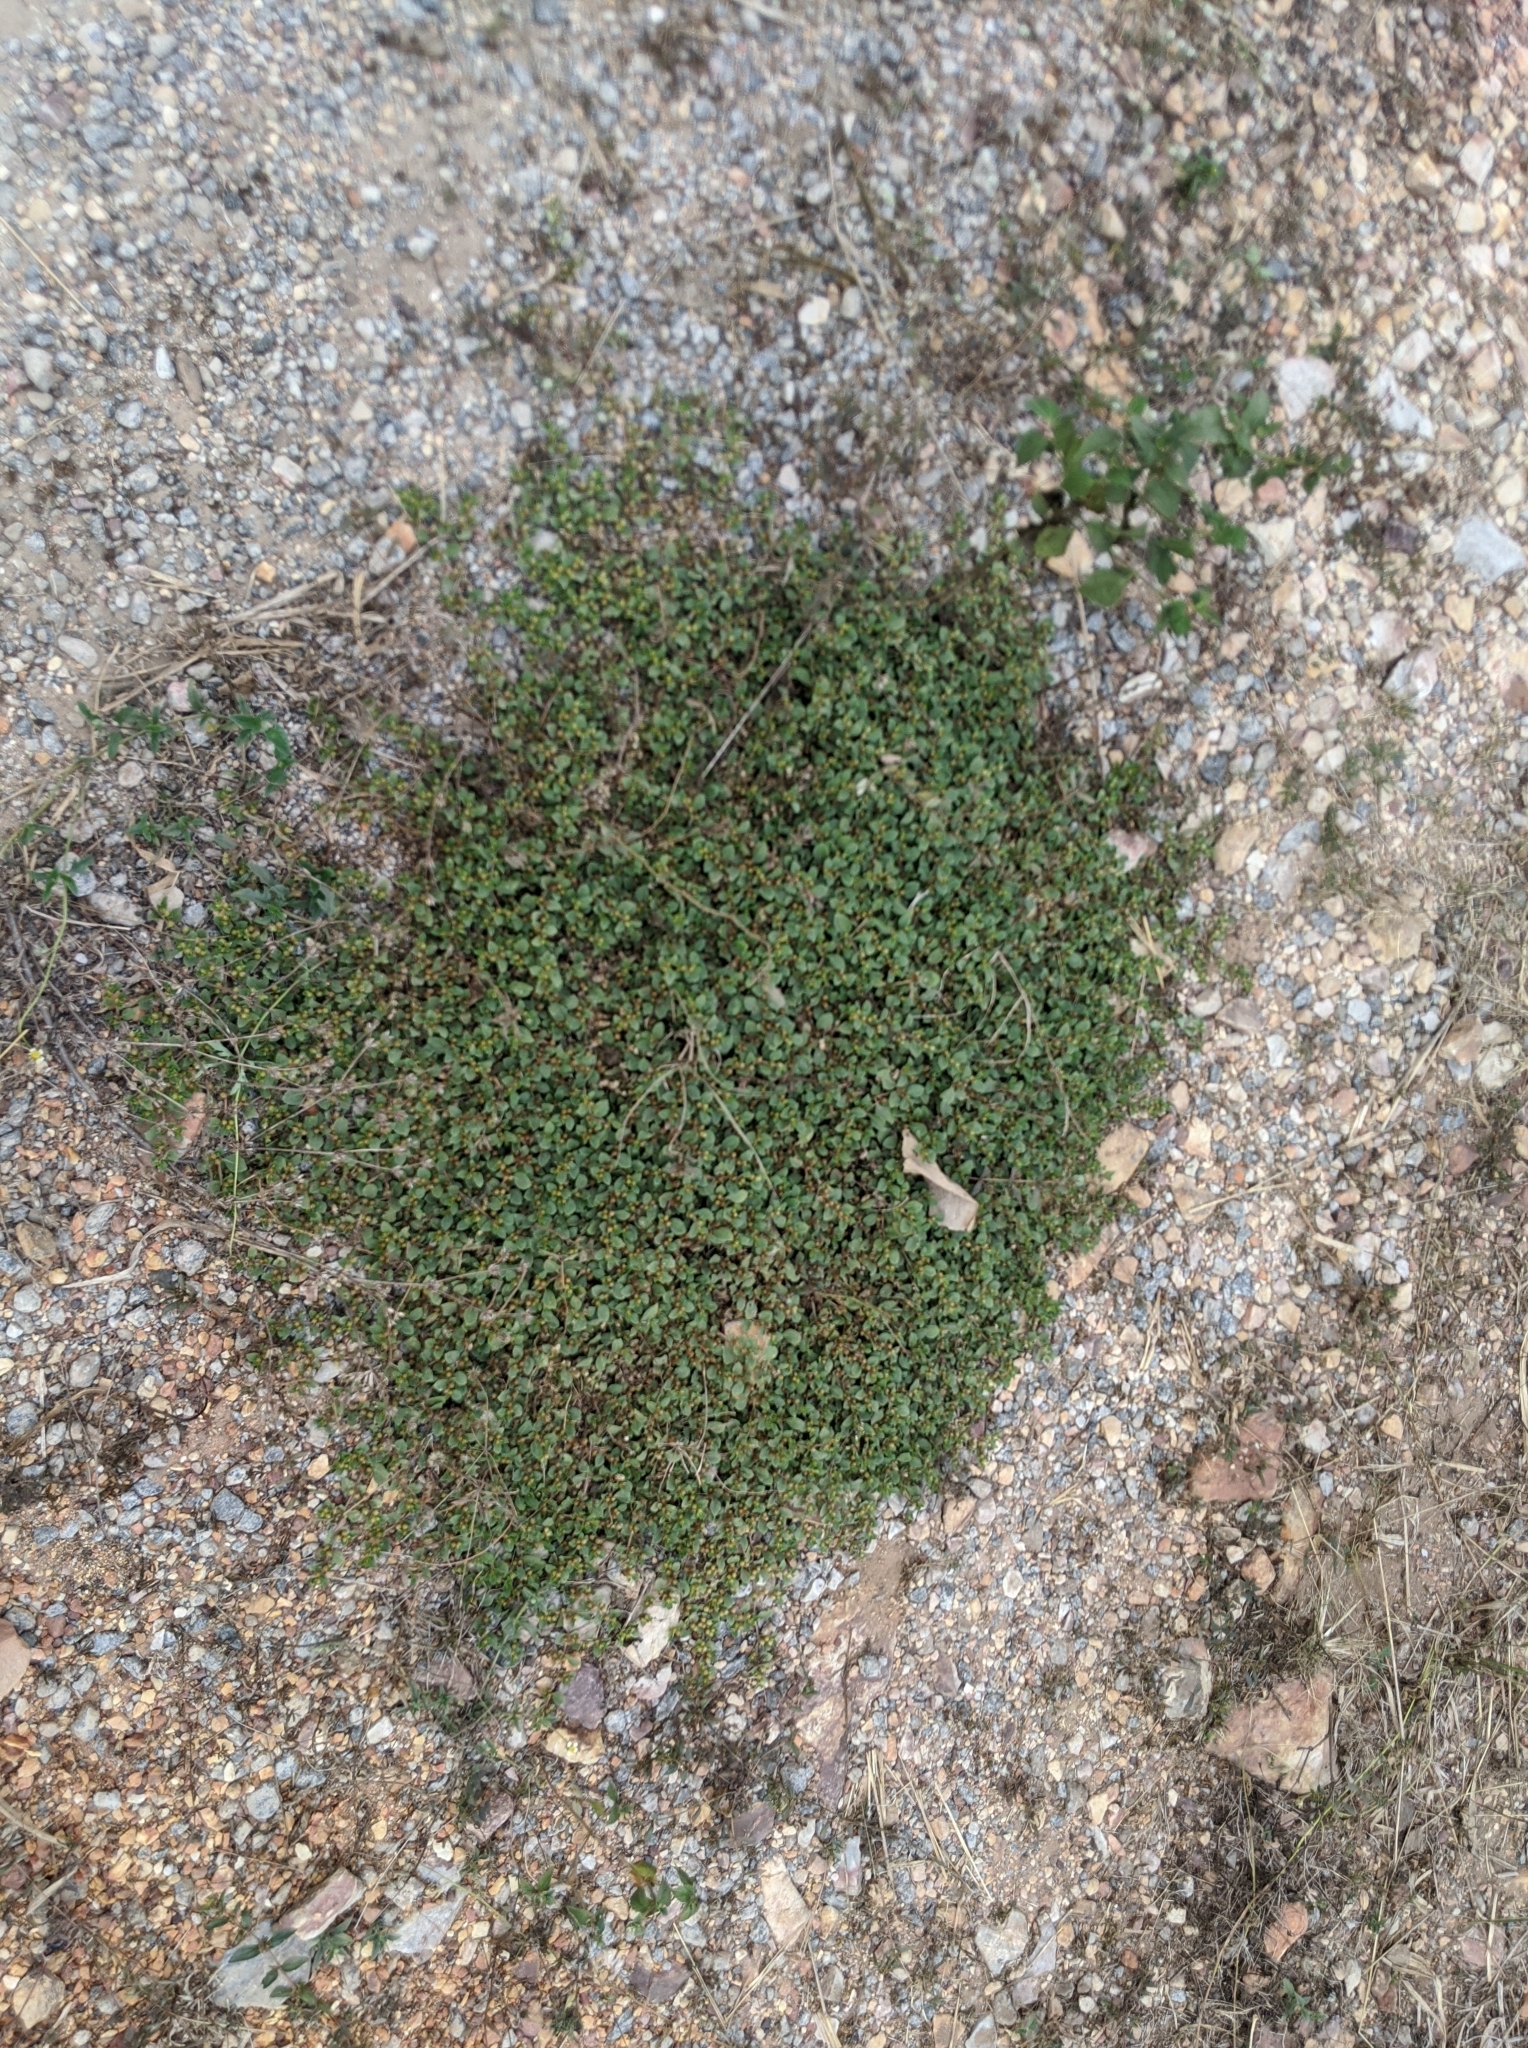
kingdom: Plantae
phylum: Tracheophyta
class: Magnoliopsida
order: Caryophyllales
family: Amaranthaceae
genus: Alternanthera
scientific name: Alternanthera pungens
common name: Khakiweed
